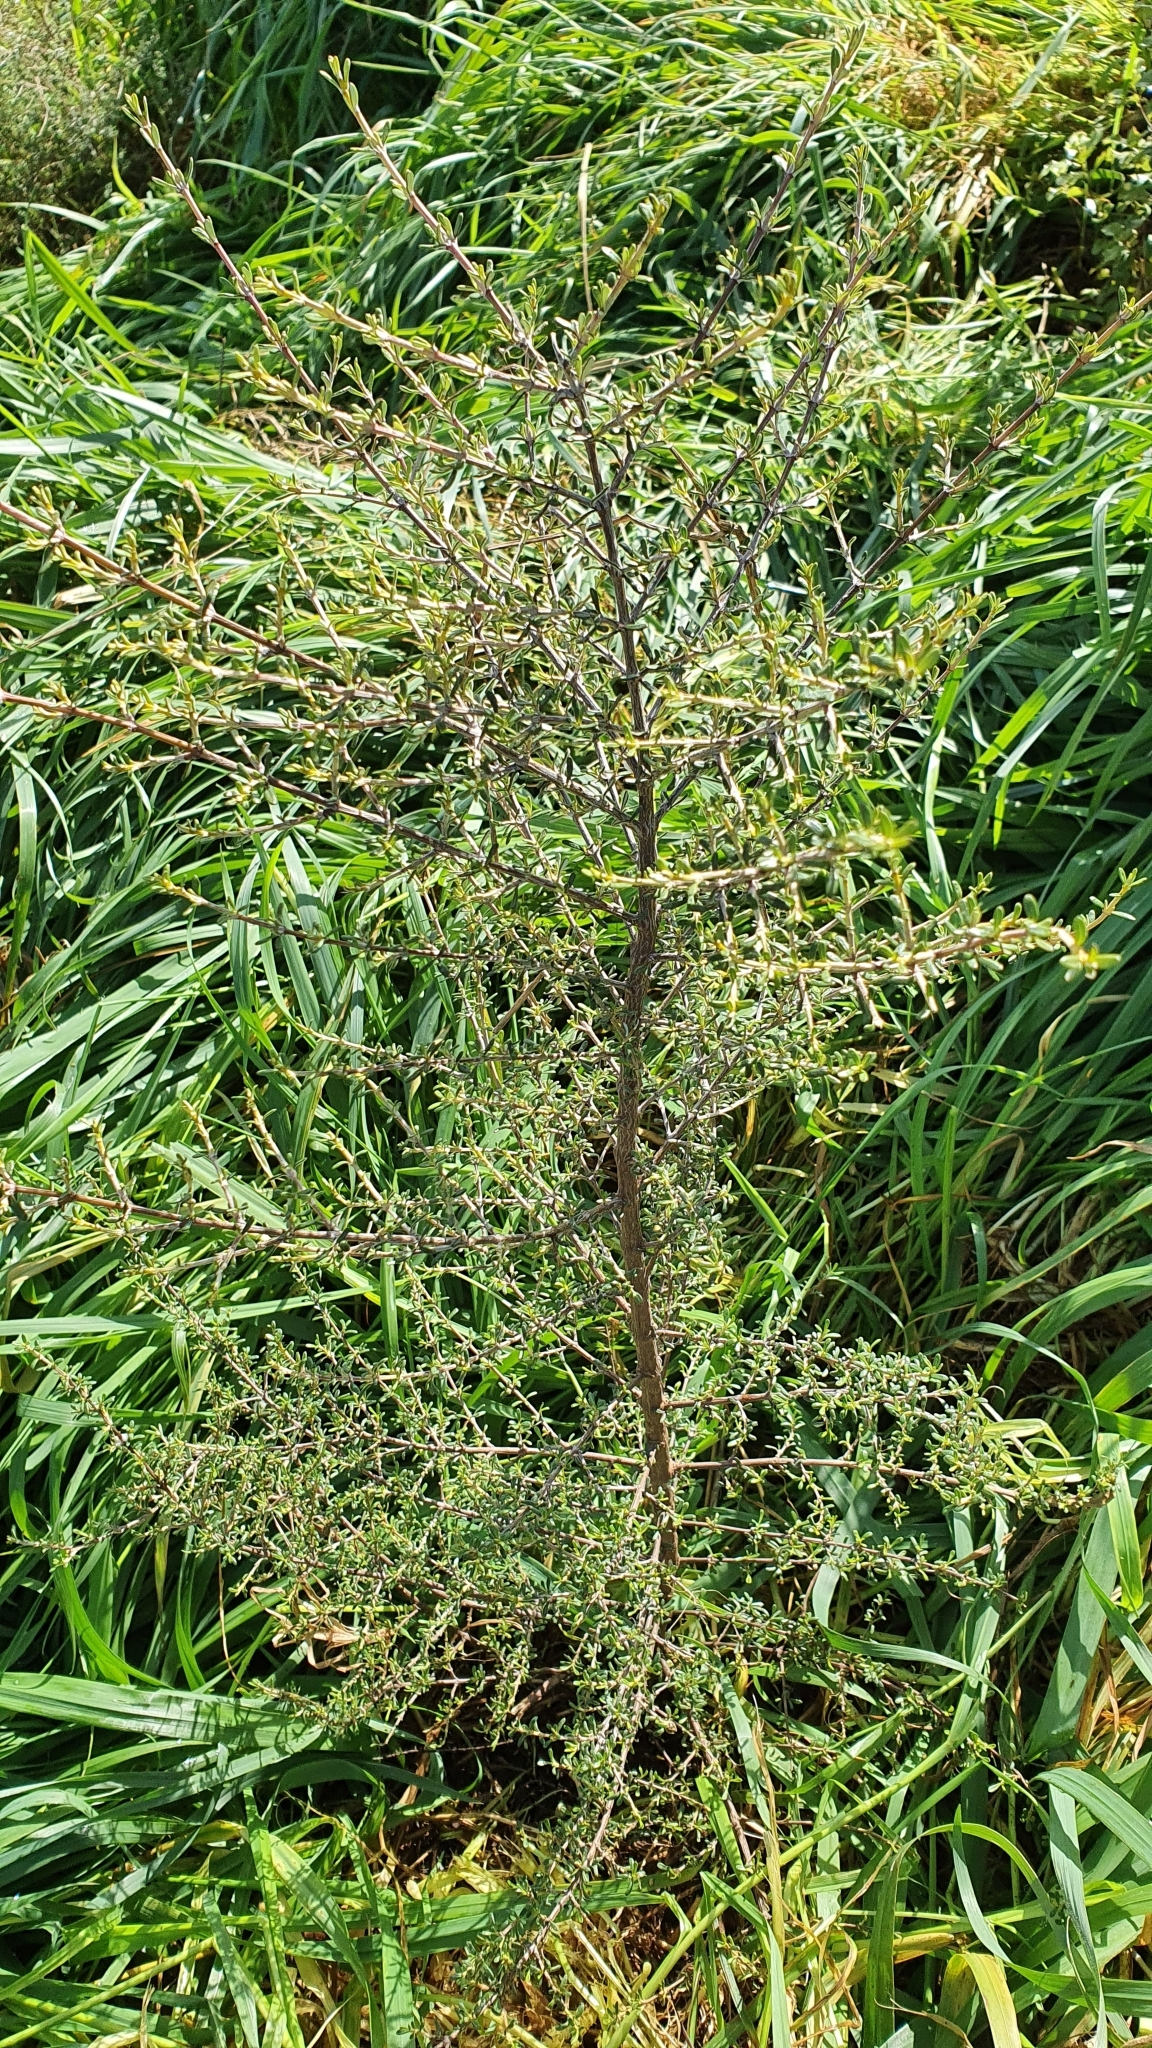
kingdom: Plantae
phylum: Tracheophyta
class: Magnoliopsida
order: Asterales
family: Asteraceae
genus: Olearia
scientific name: Olearia solandri
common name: Coastal daisybush
